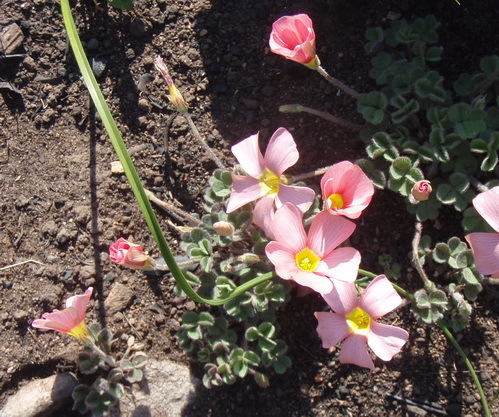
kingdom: Plantae
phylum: Tracheophyta
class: Magnoliopsida
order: Oxalidales
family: Oxalidaceae
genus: Oxalis
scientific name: Oxalis obtusa
